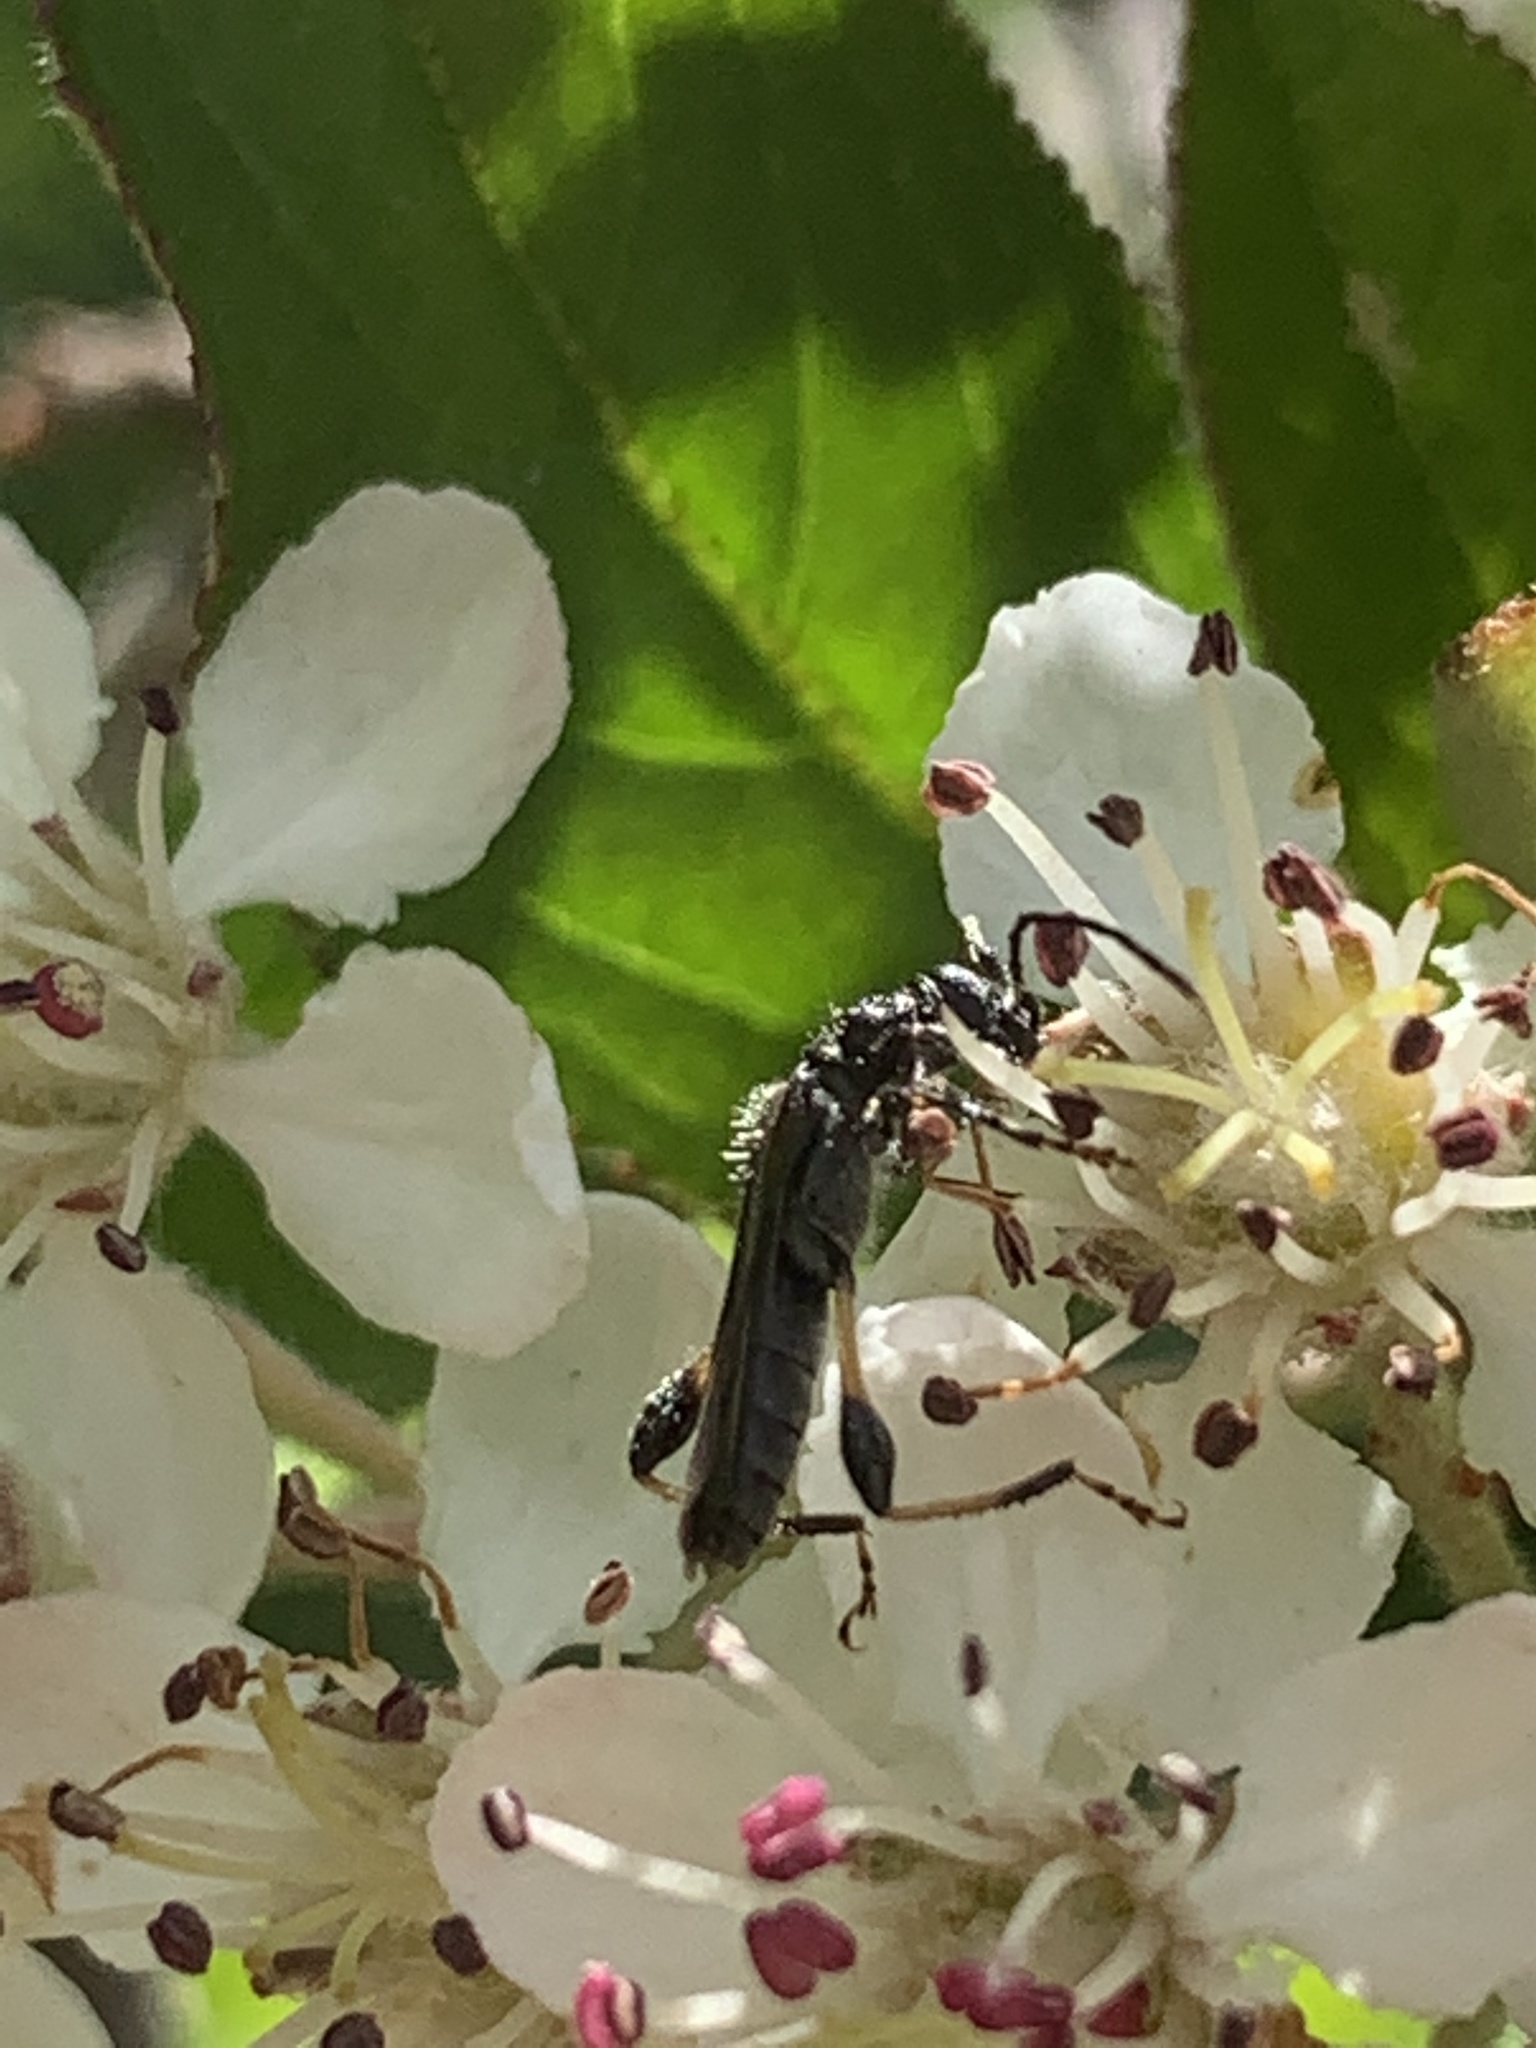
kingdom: Animalia
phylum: Arthropoda
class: Insecta
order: Coleoptera
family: Cerambycidae
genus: Callimoxys
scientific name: Callimoxys sanguinicollis
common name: Blood-necked longhorn beetle
